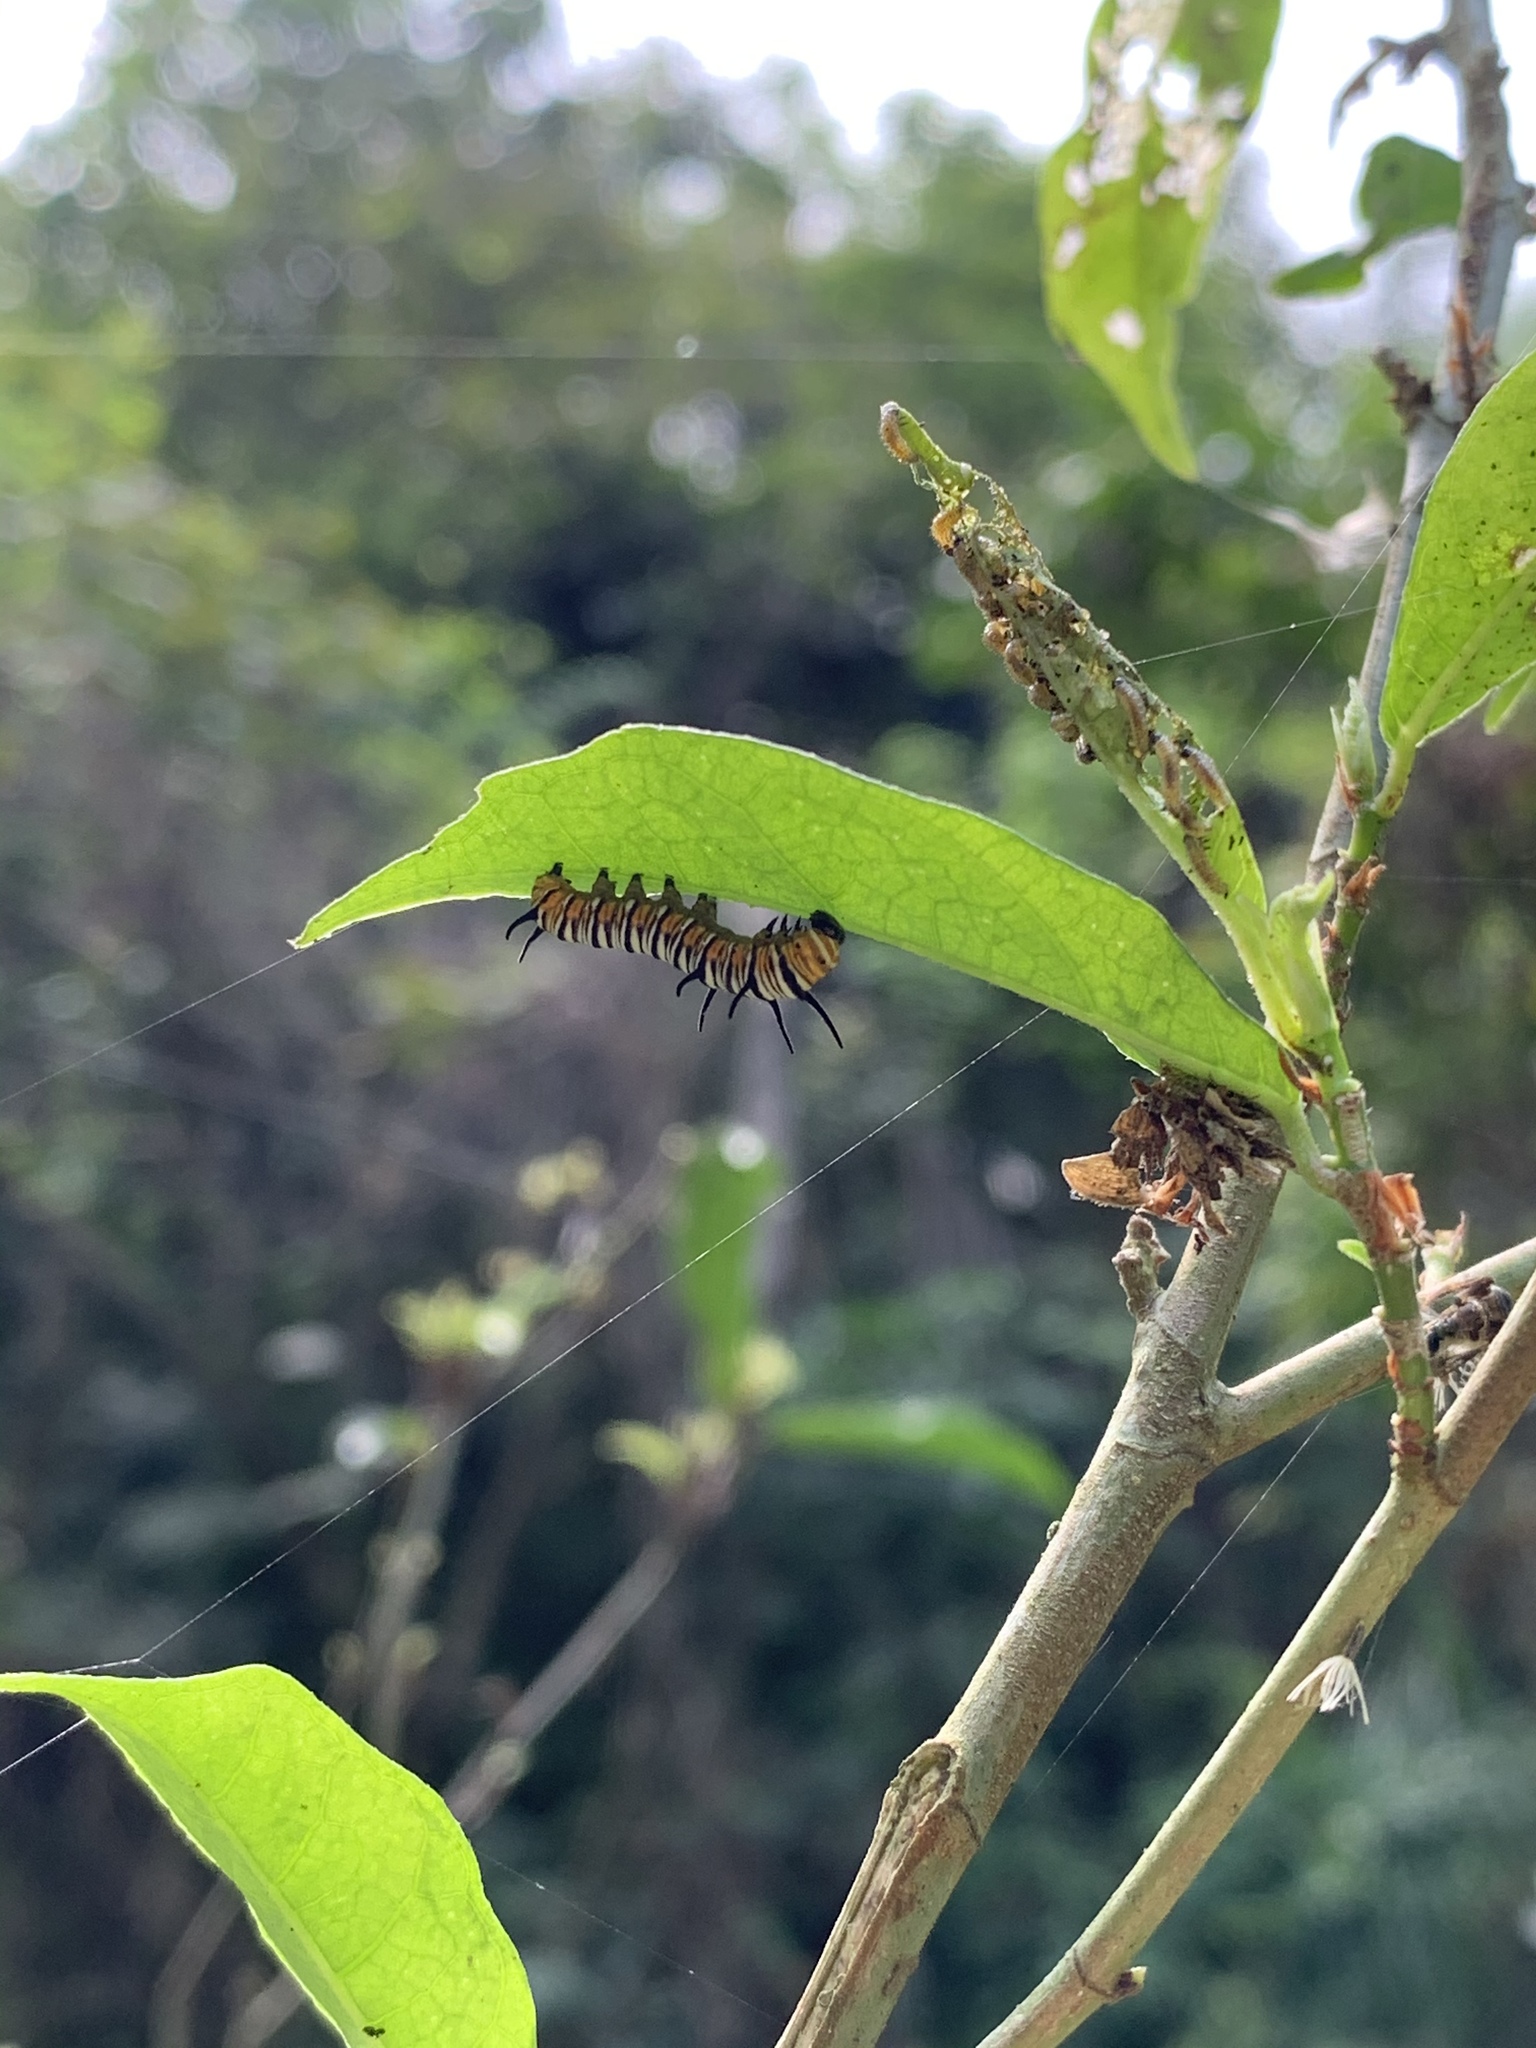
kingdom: Animalia
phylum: Arthropoda
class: Insecta
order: Lepidoptera
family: Nymphalidae
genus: Euploea
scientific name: Euploea mulciber
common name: Striped blue crow butterfly
